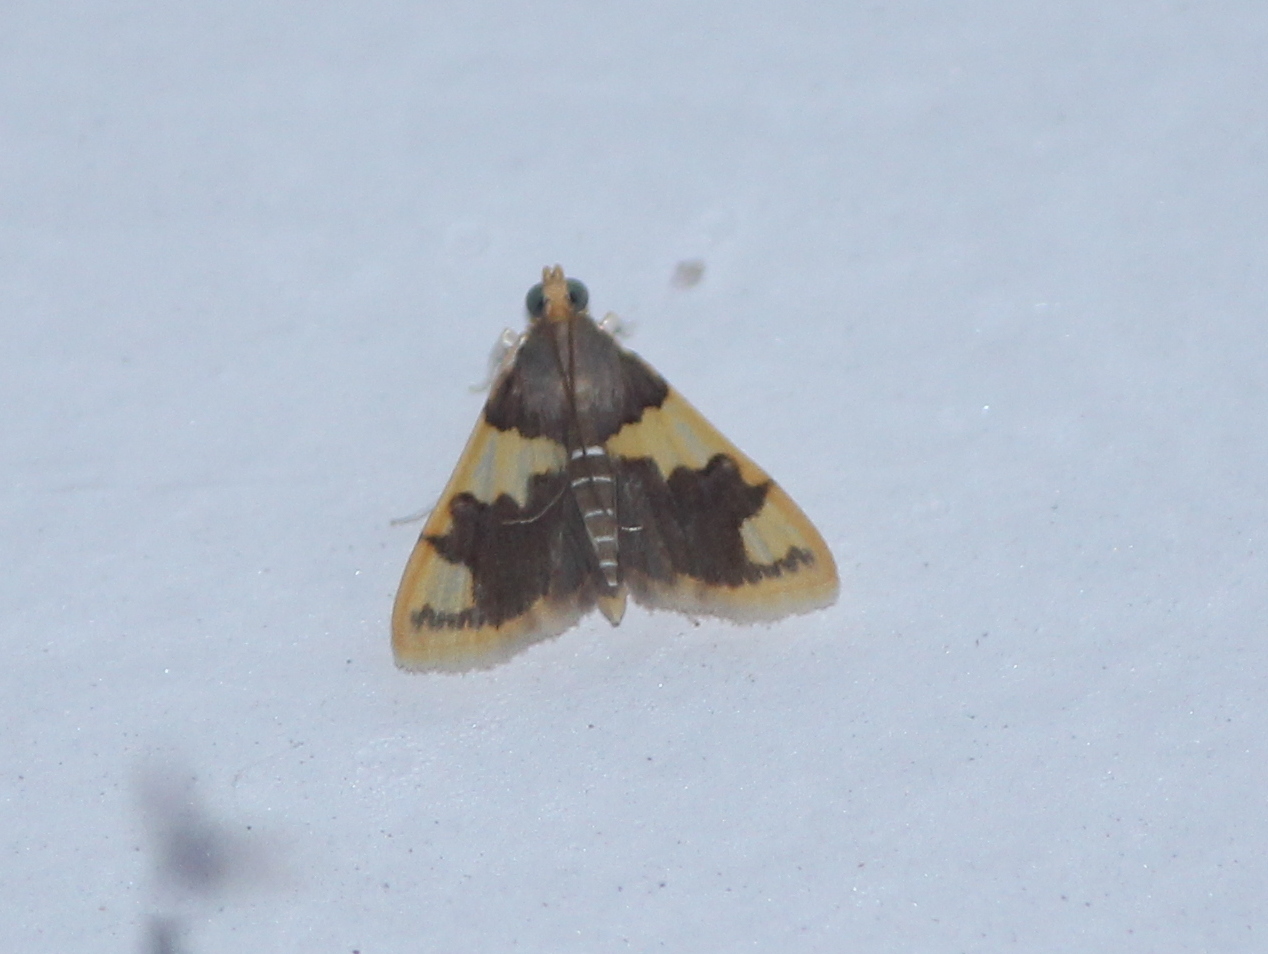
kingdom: Animalia
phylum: Arthropoda
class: Insecta
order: Lepidoptera
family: Crambidae
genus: Rehimena
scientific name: Rehimena phrynealis
